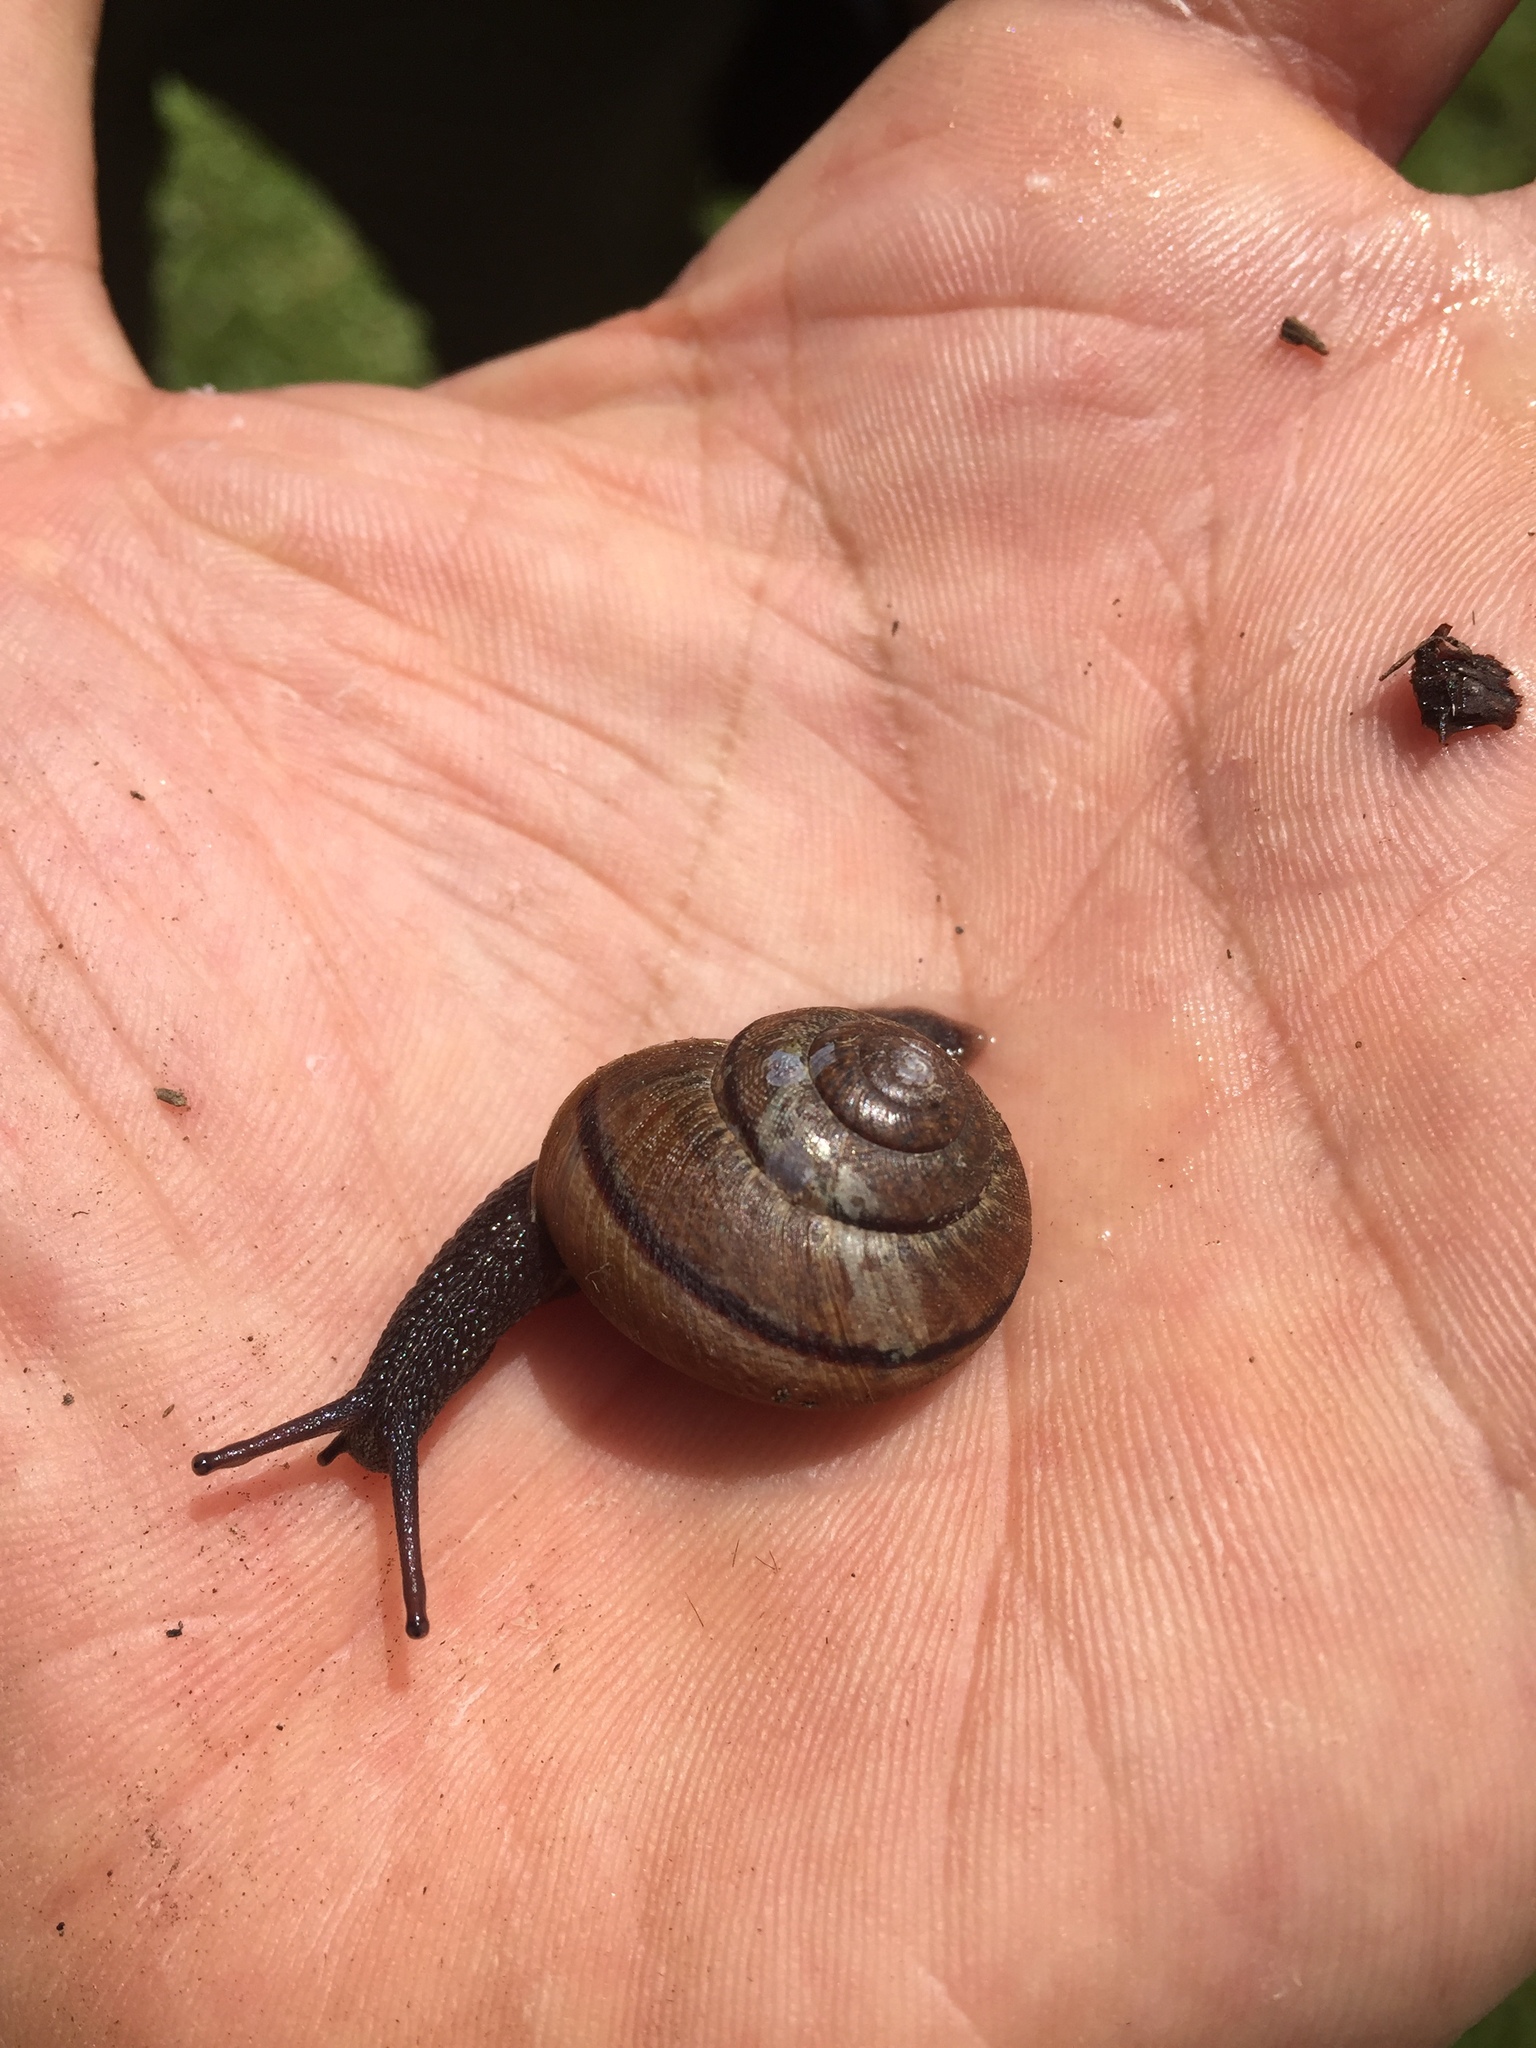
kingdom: Animalia
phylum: Mollusca
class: Gastropoda
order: Stylommatophora
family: Xanthonychidae
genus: Helminthoglypta
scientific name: Helminthoglypta nickliniana
